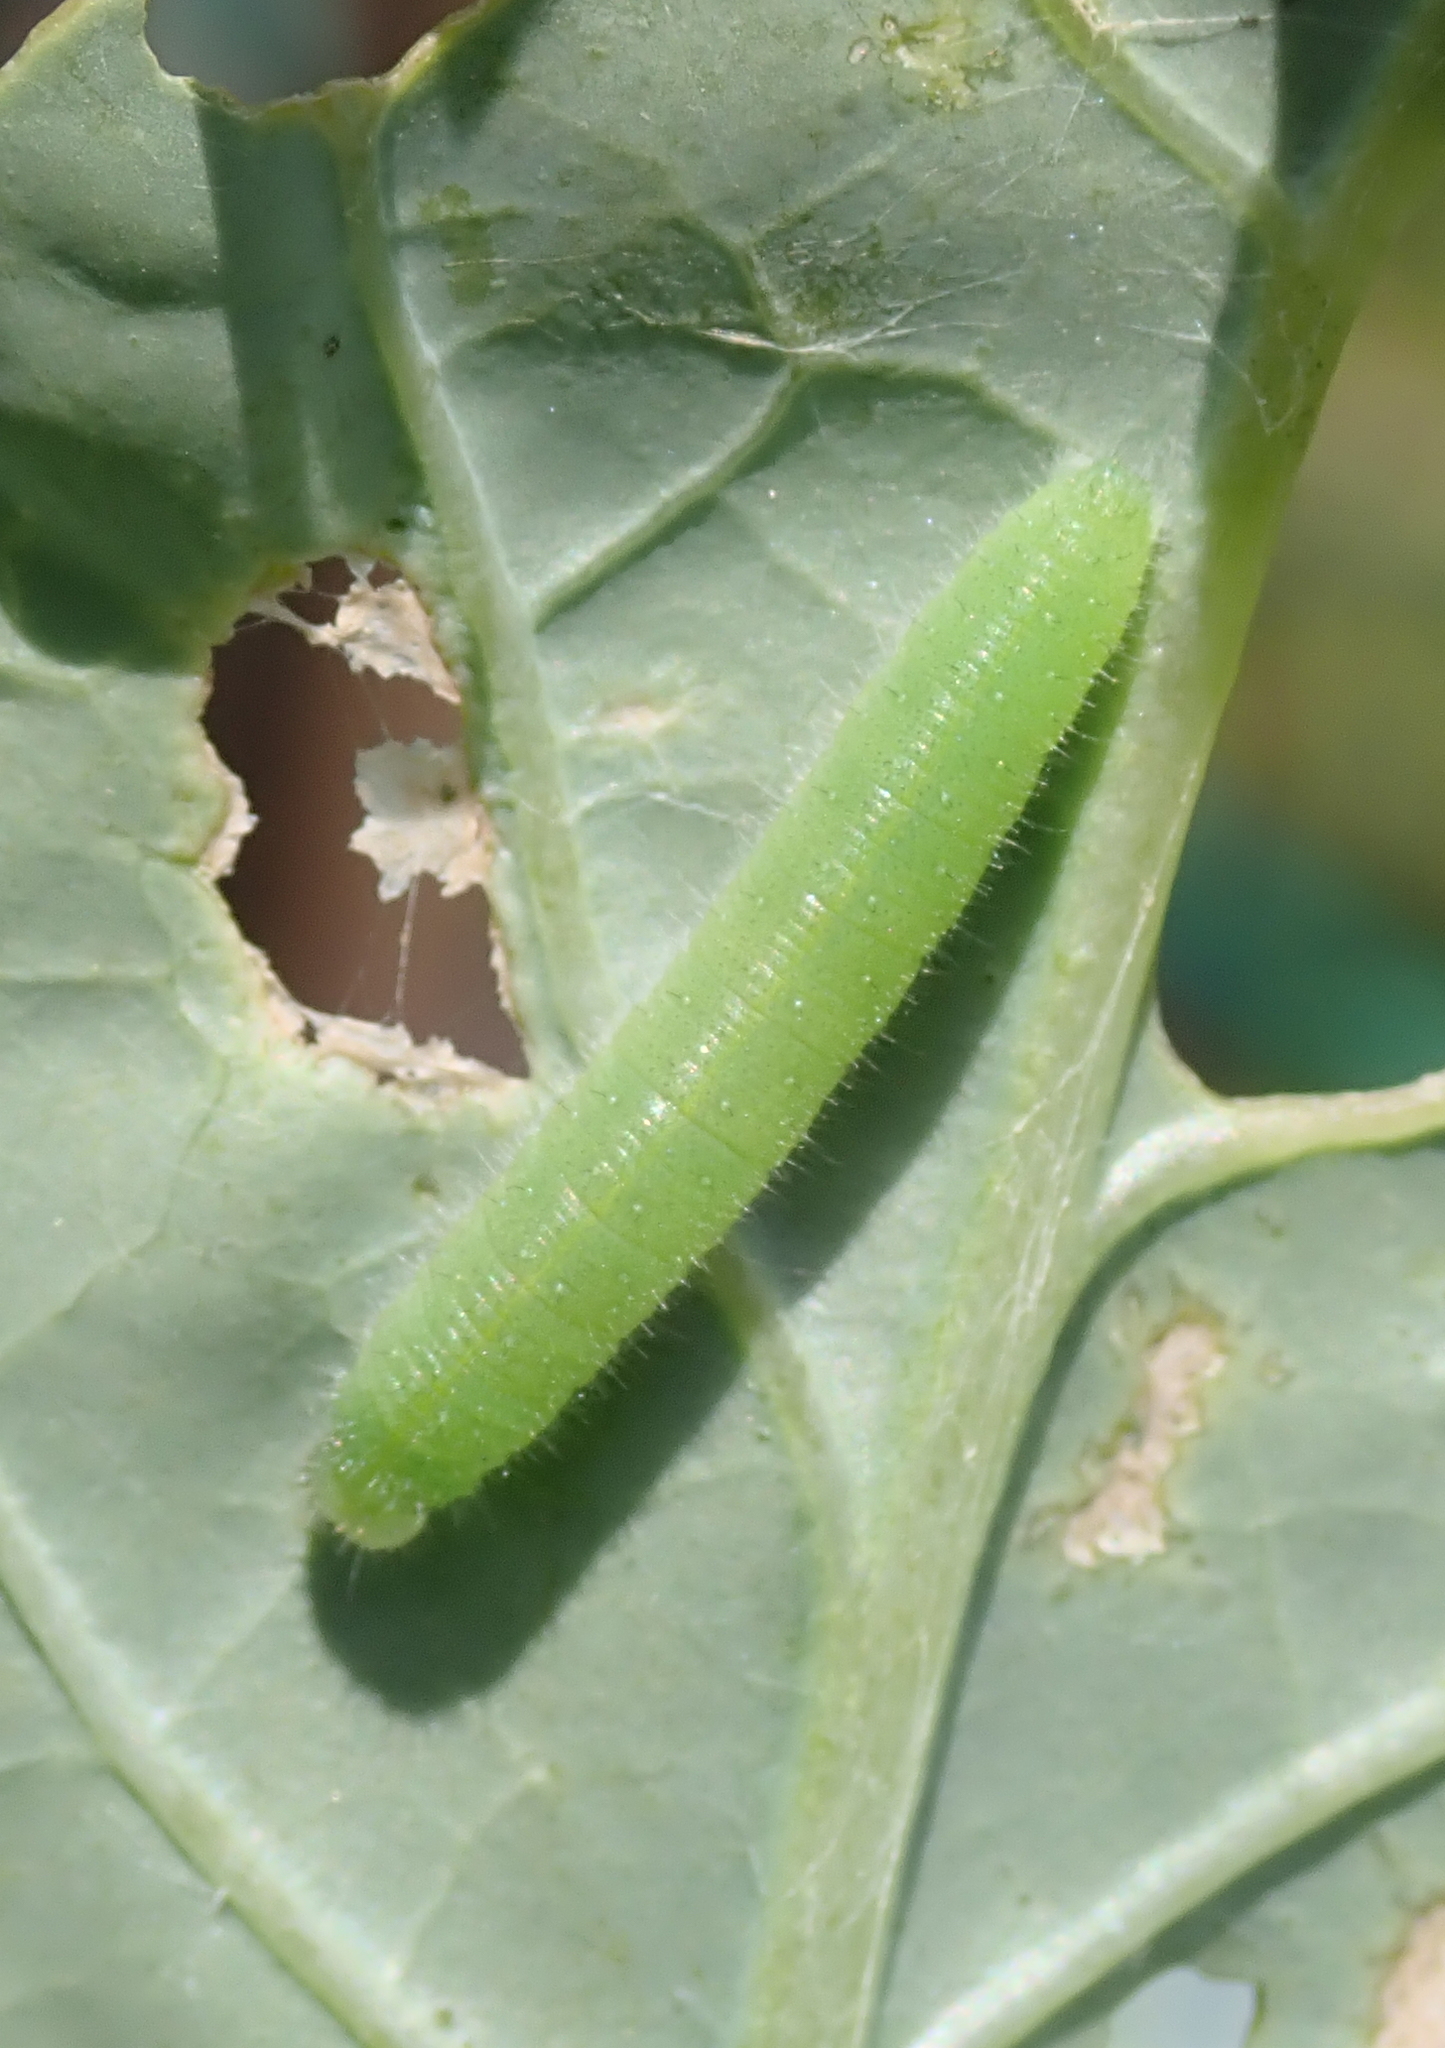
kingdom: Animalia
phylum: Arthropoda
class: Insecta
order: Lepidoptera
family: Pieridae
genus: Pieris
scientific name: Pieris rapae
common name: Small white
